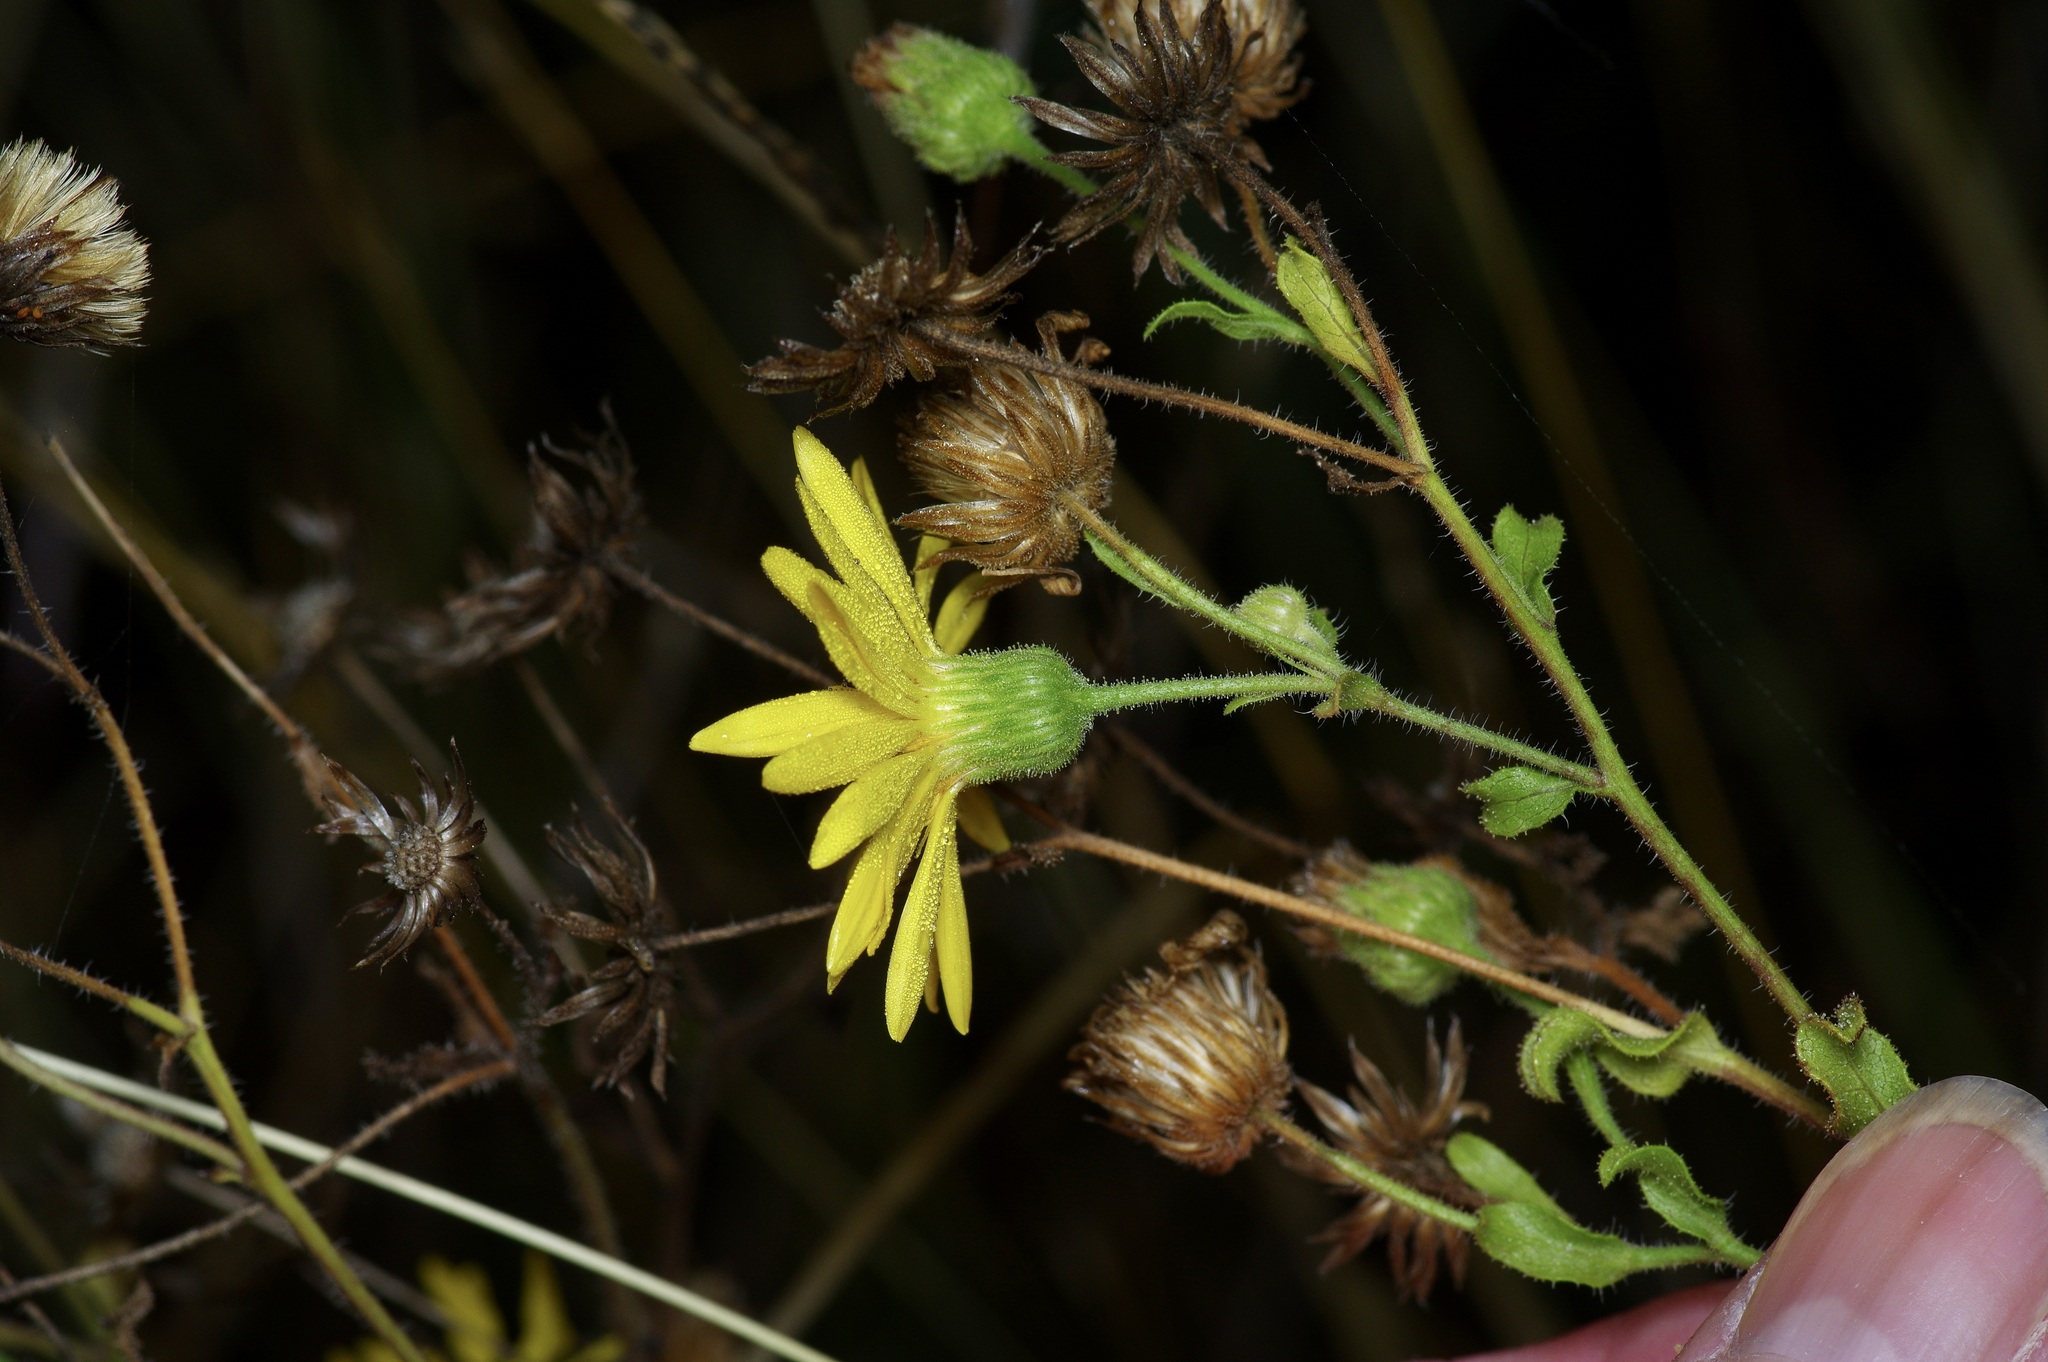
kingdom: Plantae
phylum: Tracheophyta
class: Magnoliopsida
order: Asterales
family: Asteraceae
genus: Heterotheca
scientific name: Heterotheca subaxillaris
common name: Camphorweed
